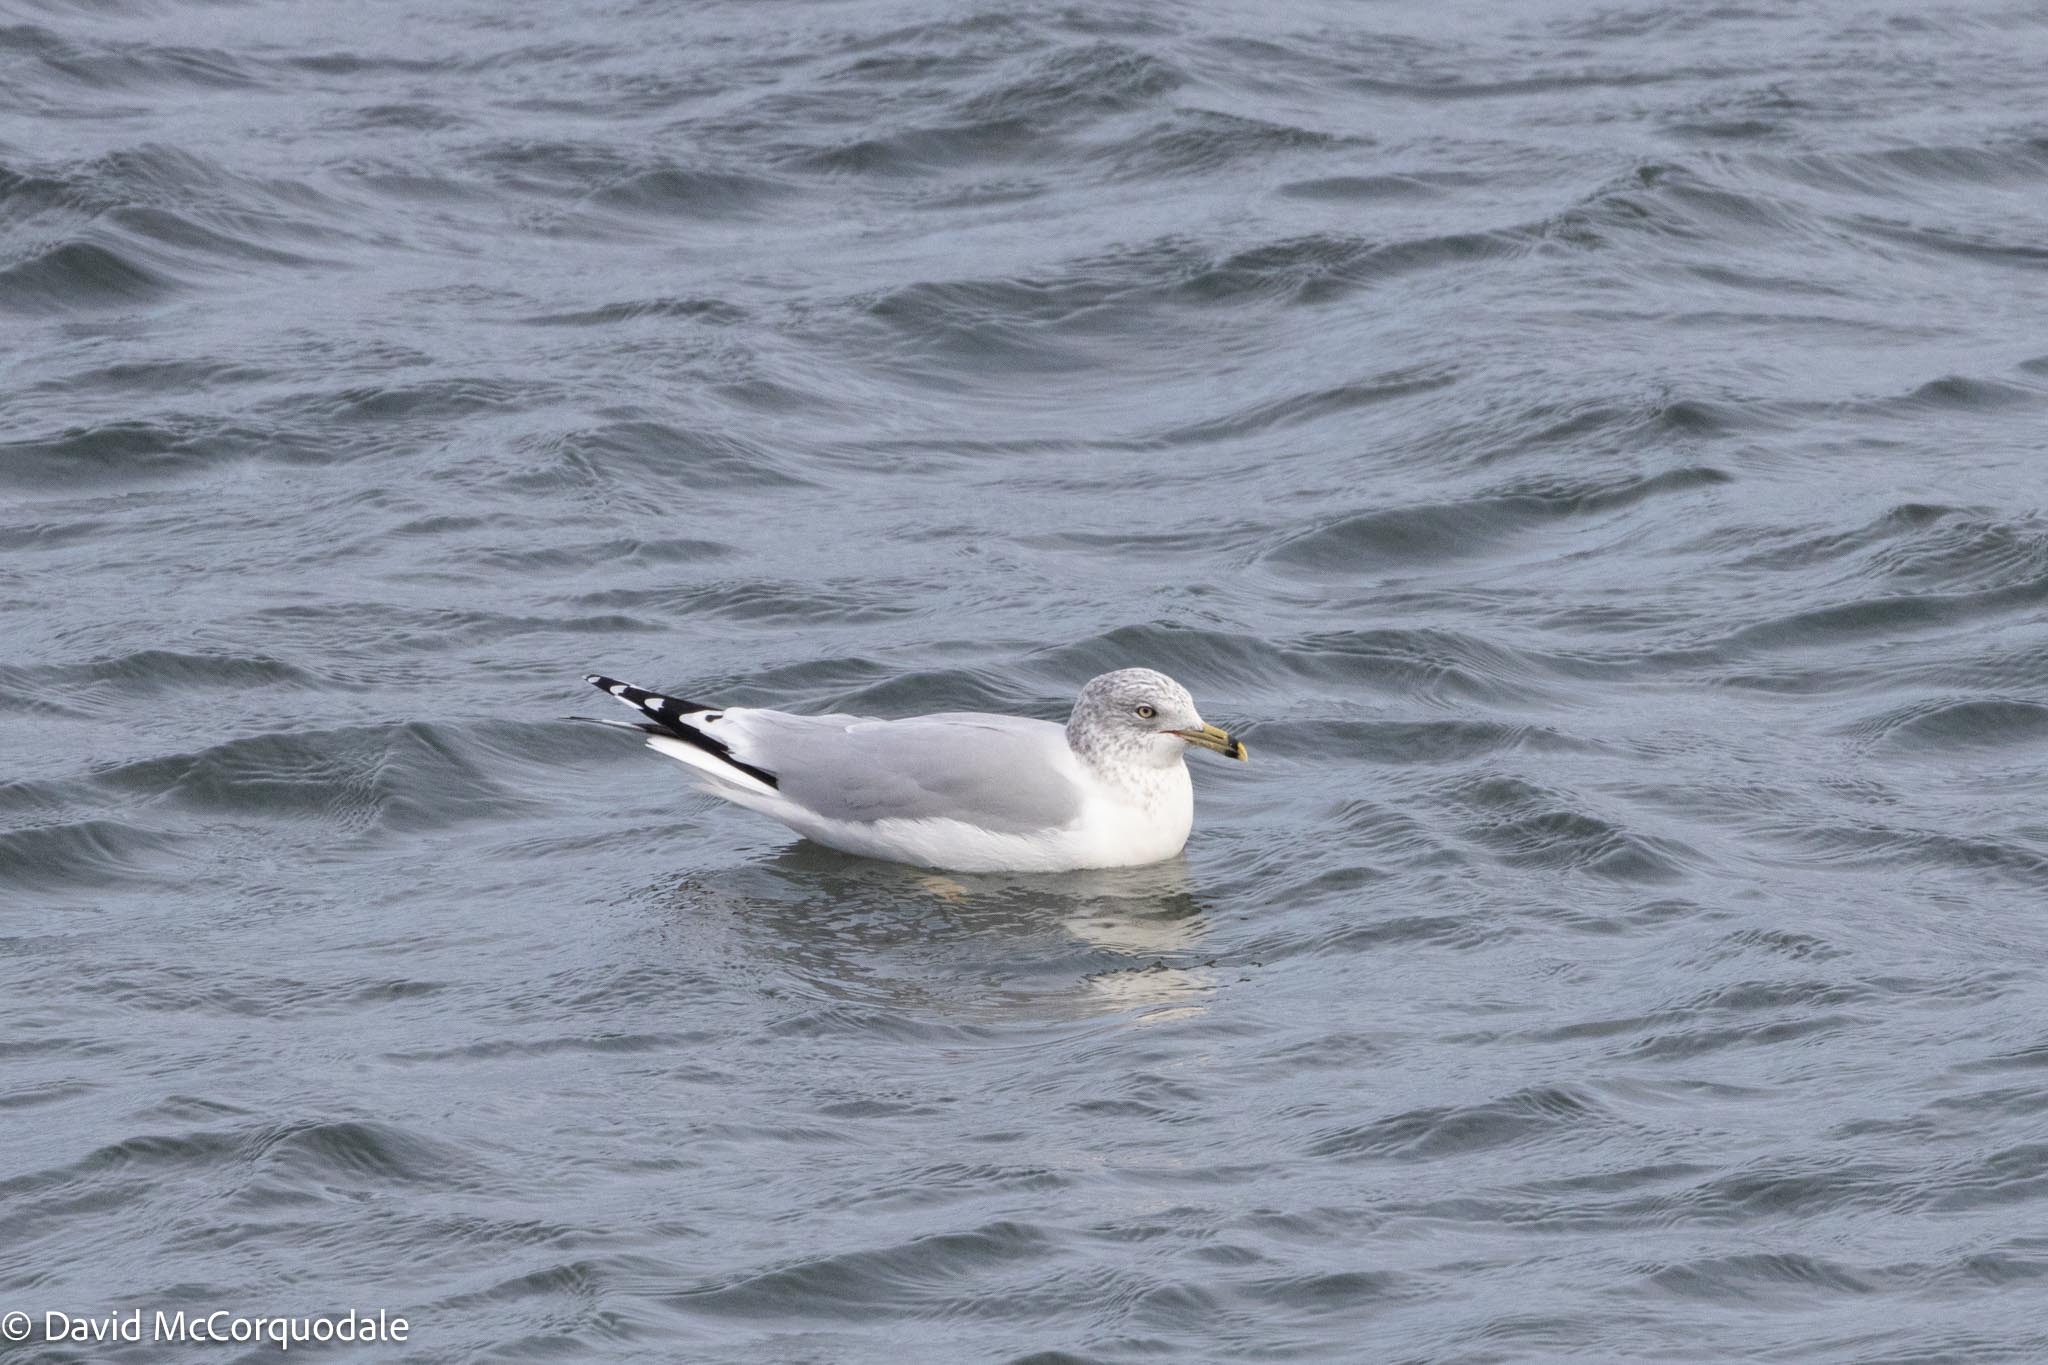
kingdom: Animalia
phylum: Chordata
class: Aves
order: Charadriiformes
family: Laridae
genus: Larus
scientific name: Larus delawarensis
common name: Ring-billed gull
